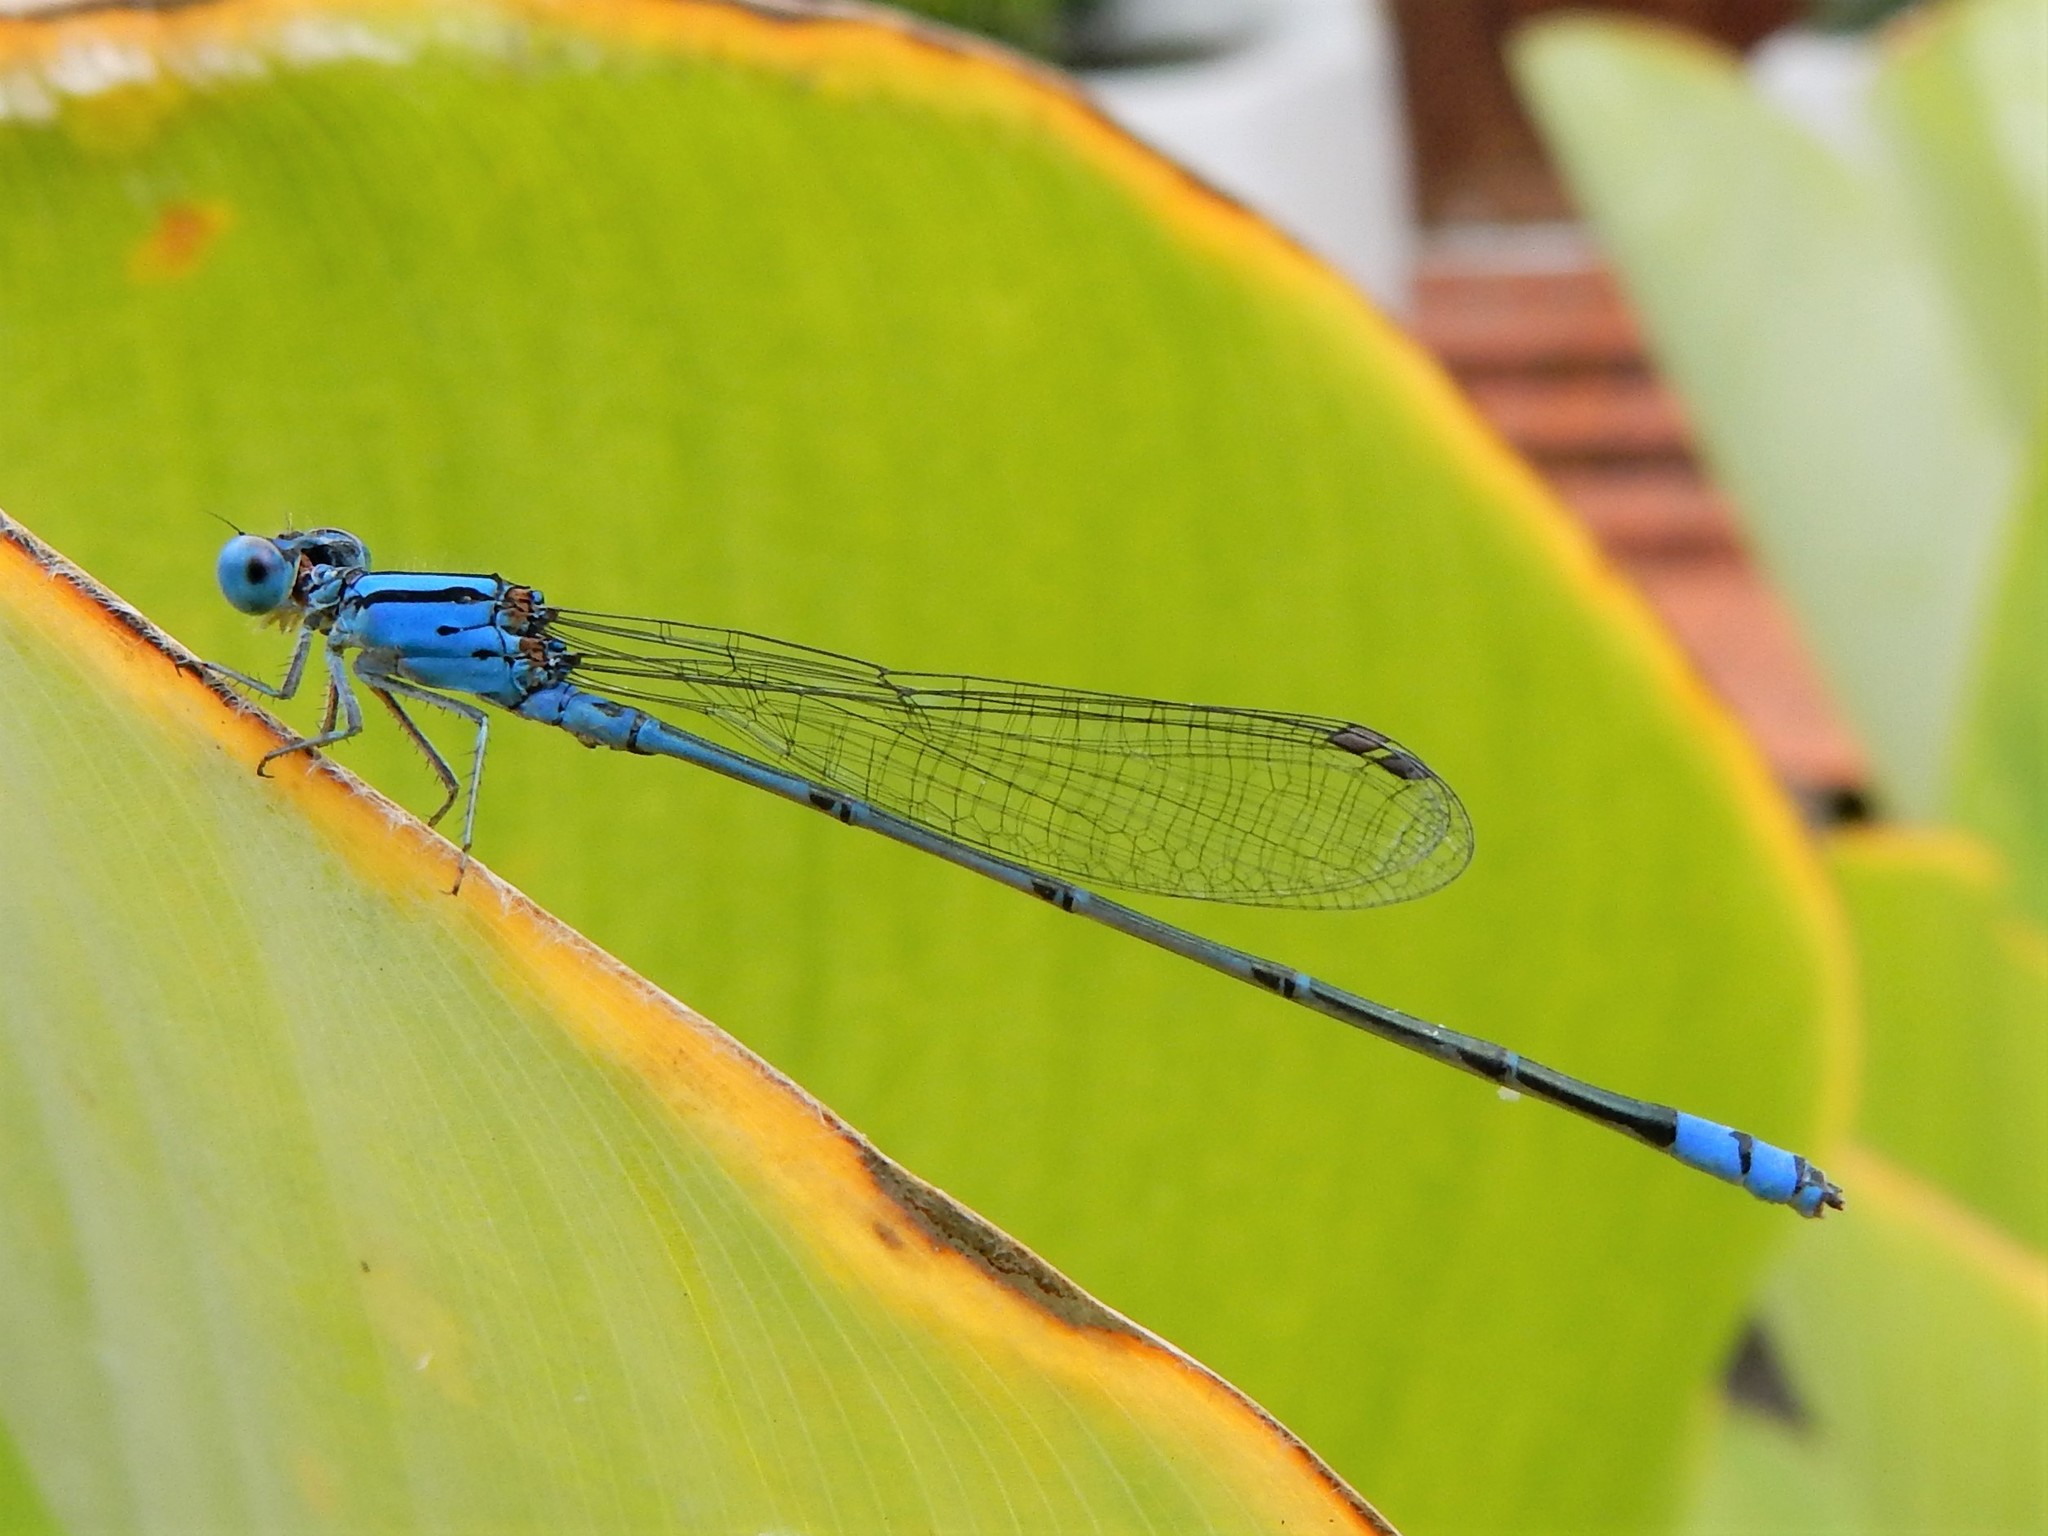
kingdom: Animalia
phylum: Arthropoda
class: Insecta
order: Odonata
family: Coenagrionidae
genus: Pseudagrion
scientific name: Pseudagrion microcephalum
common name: Blue riverdamsel
